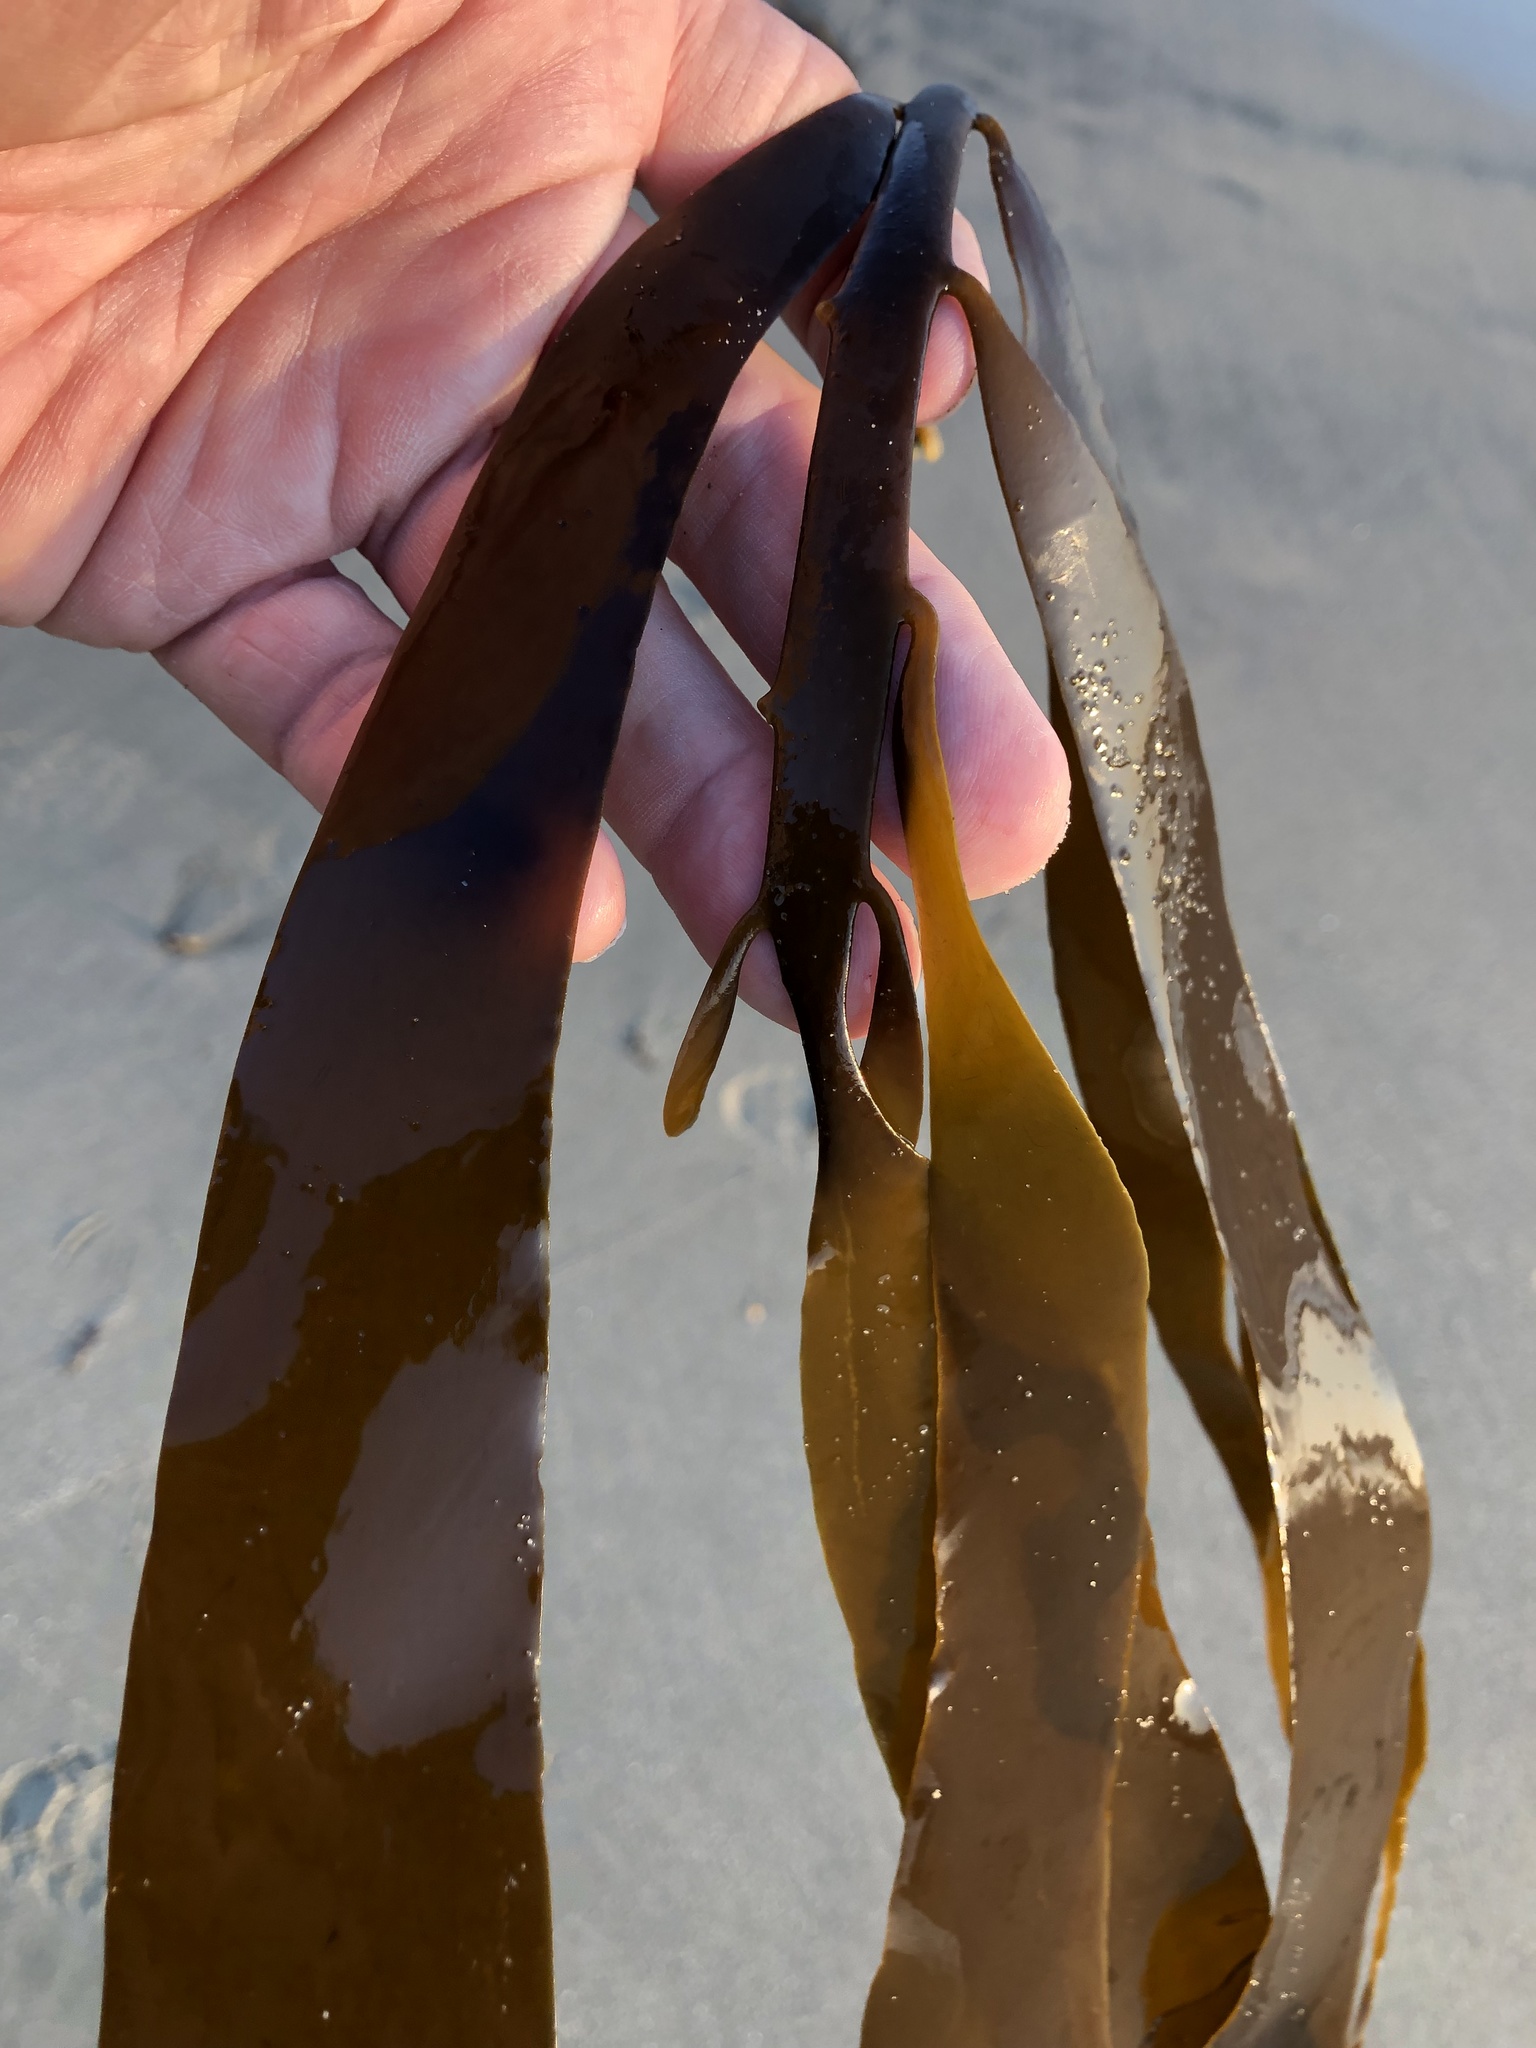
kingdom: Chromista
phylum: Ochrophyta
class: Phaeophyceae
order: Laminariales
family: Alariaceae
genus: Pterygophora
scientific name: Pterygophora californica
